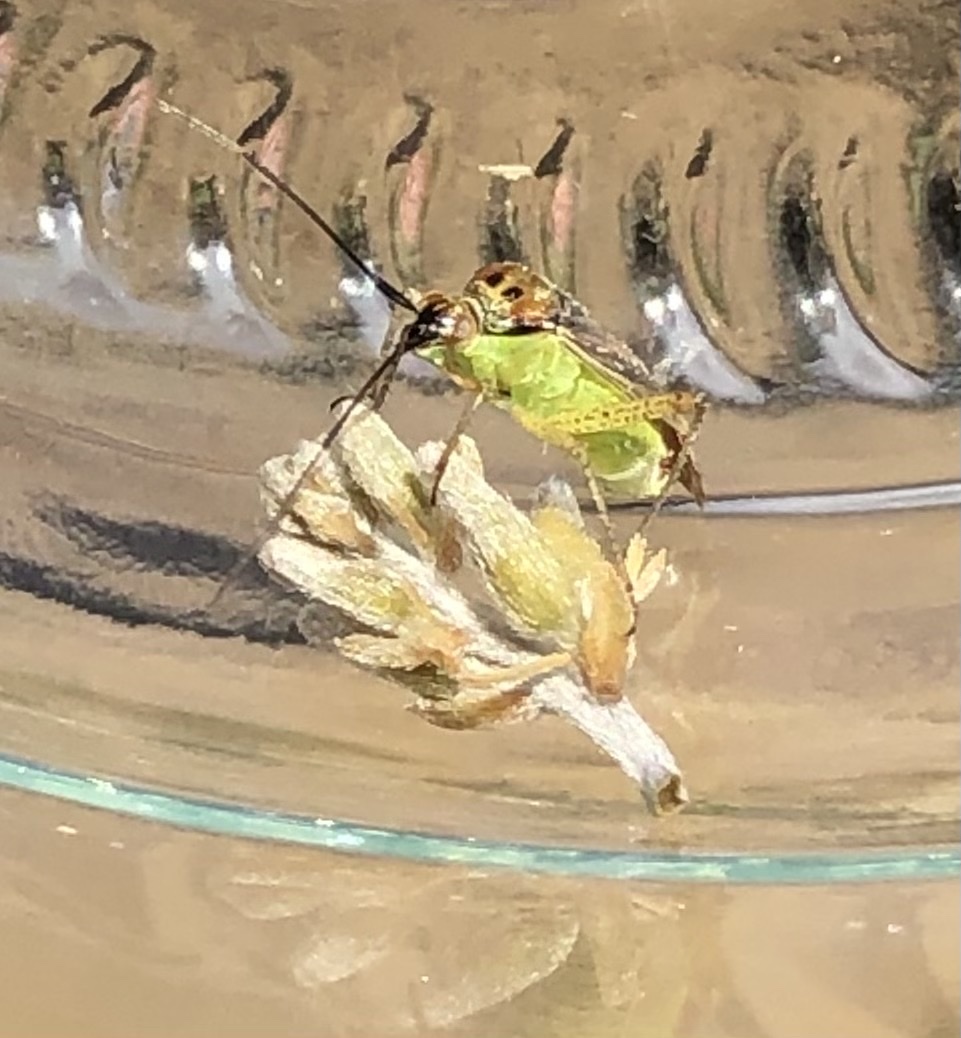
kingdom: Animalia
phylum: Arthropoda
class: Insecta
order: Hemiptera
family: Miridae
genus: Closterotomus
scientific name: Closterotomus trivialis
